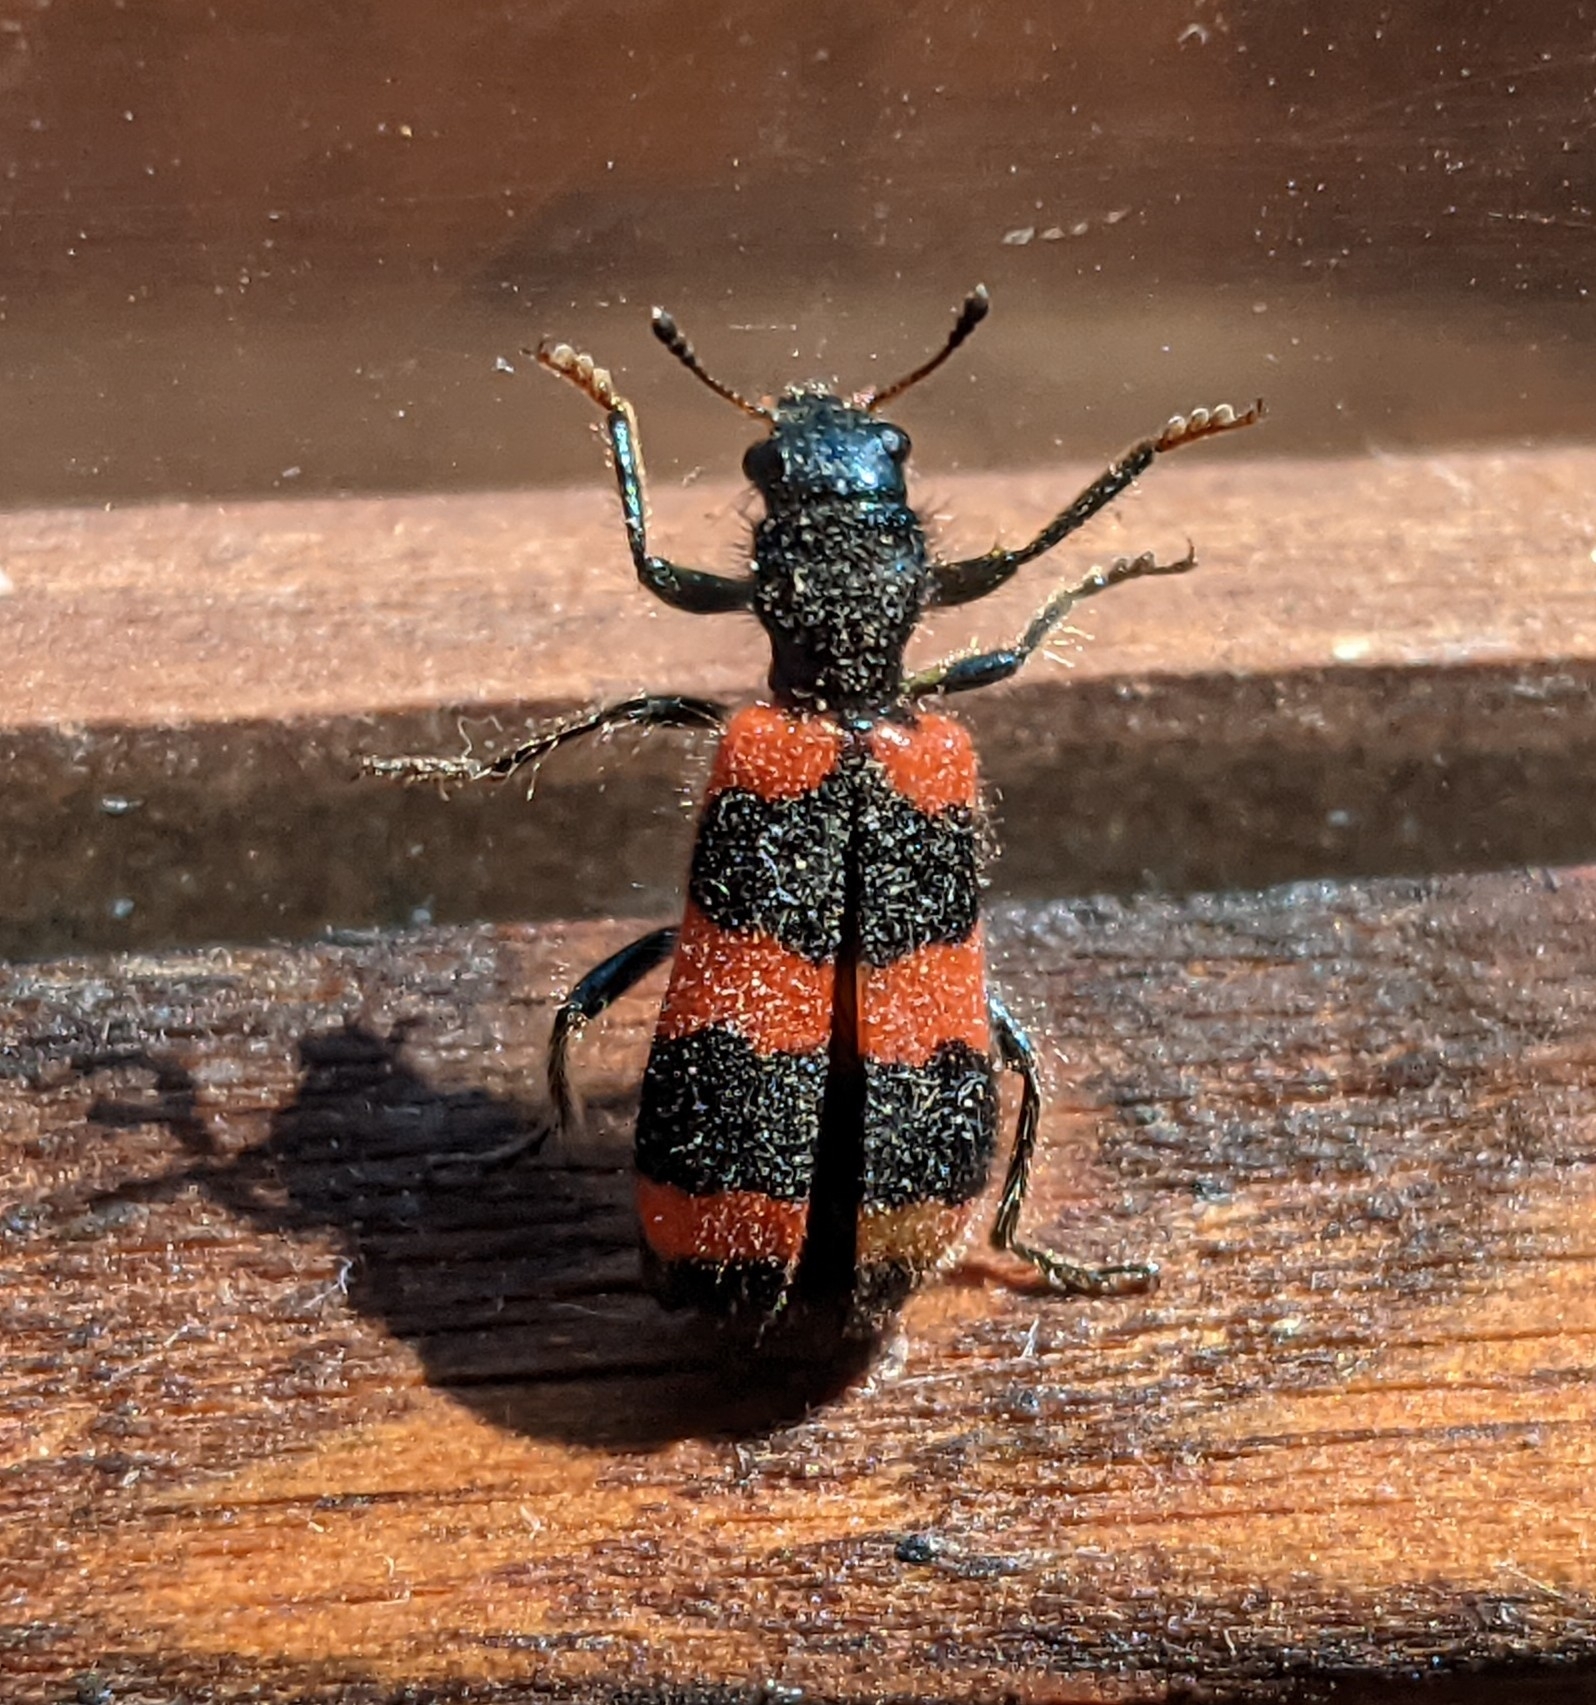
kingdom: Animalia
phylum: Arthropoda
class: Insecta
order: Coleoptera
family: Cleridae
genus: Trichodes
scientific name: Trichodes apiarius
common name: Bee-eating beetle
